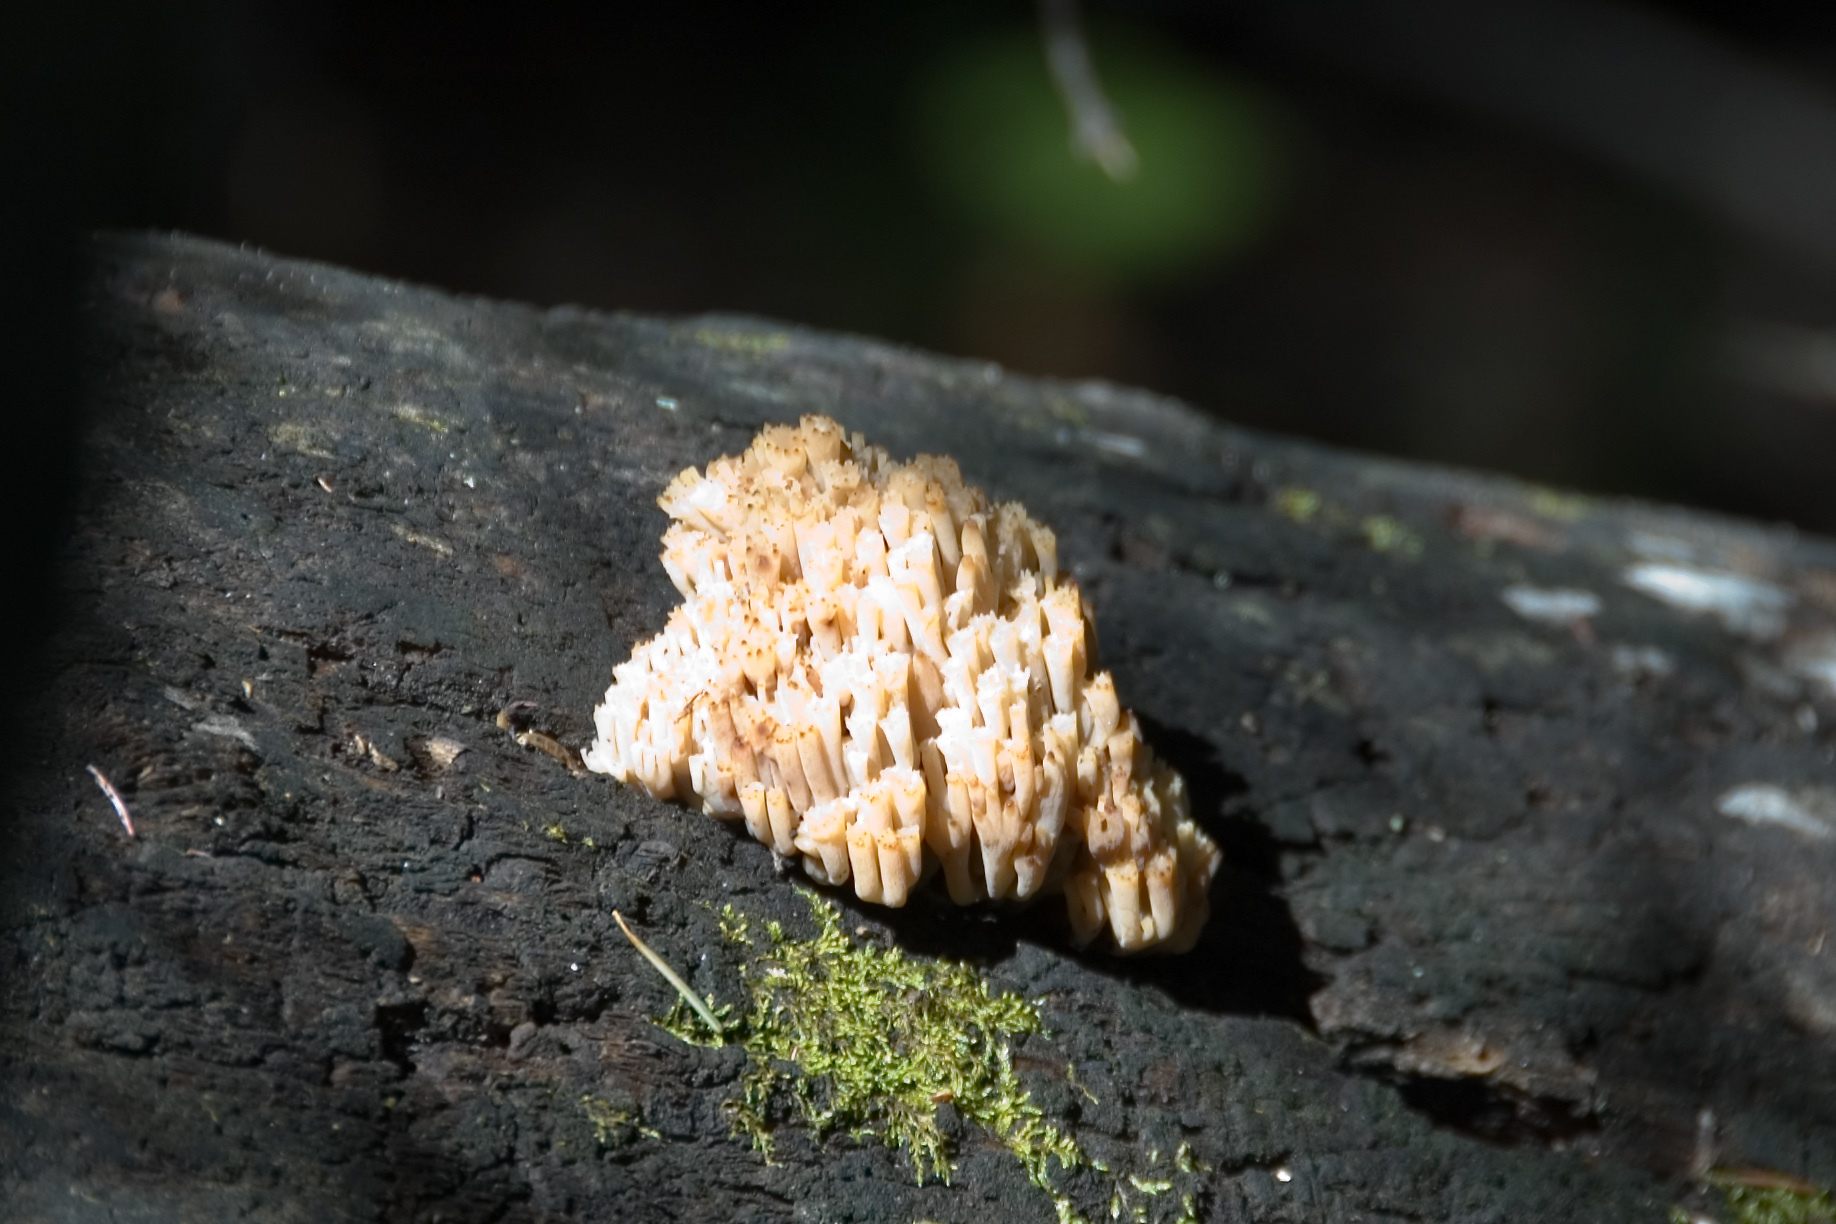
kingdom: Fungi
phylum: Basidiomycota
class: Agaricomycetes
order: Russulales
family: Auriscalpiaceae
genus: Artomyces
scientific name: Artomyces pyxidatus
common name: Crown-tipped coral fungus
